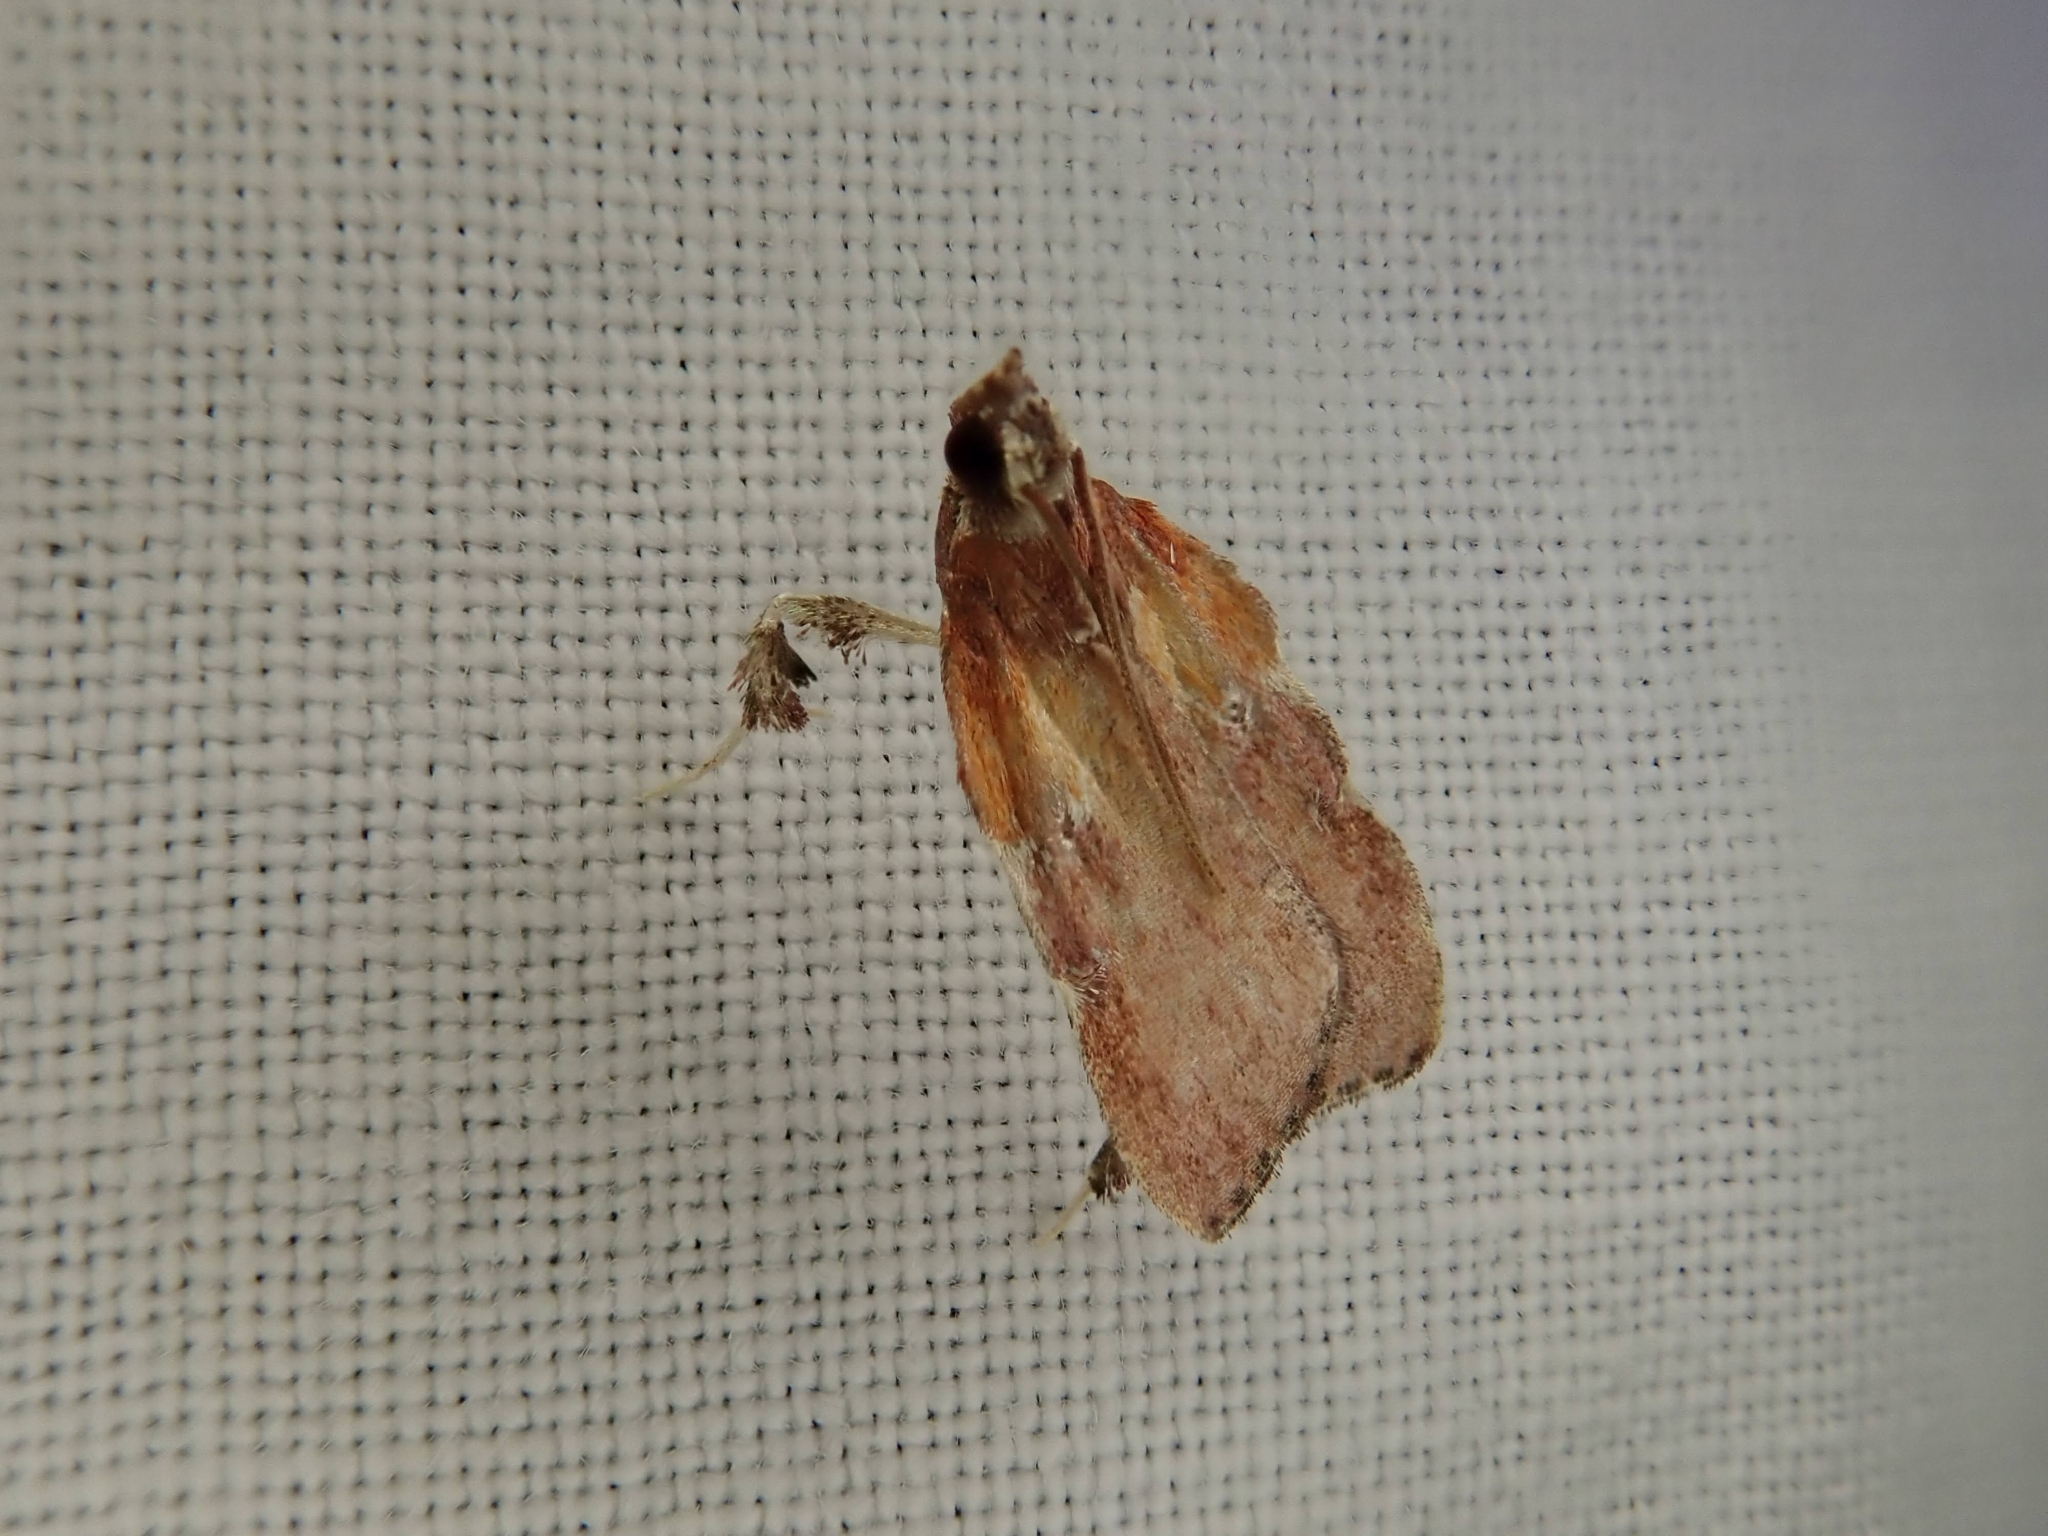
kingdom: Animalia
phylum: Arthropoda
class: Insecta
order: Lepidoptera
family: Pyralidae
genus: Galasa
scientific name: Galasa nigrinodis
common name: Boxwood leaftier moth
